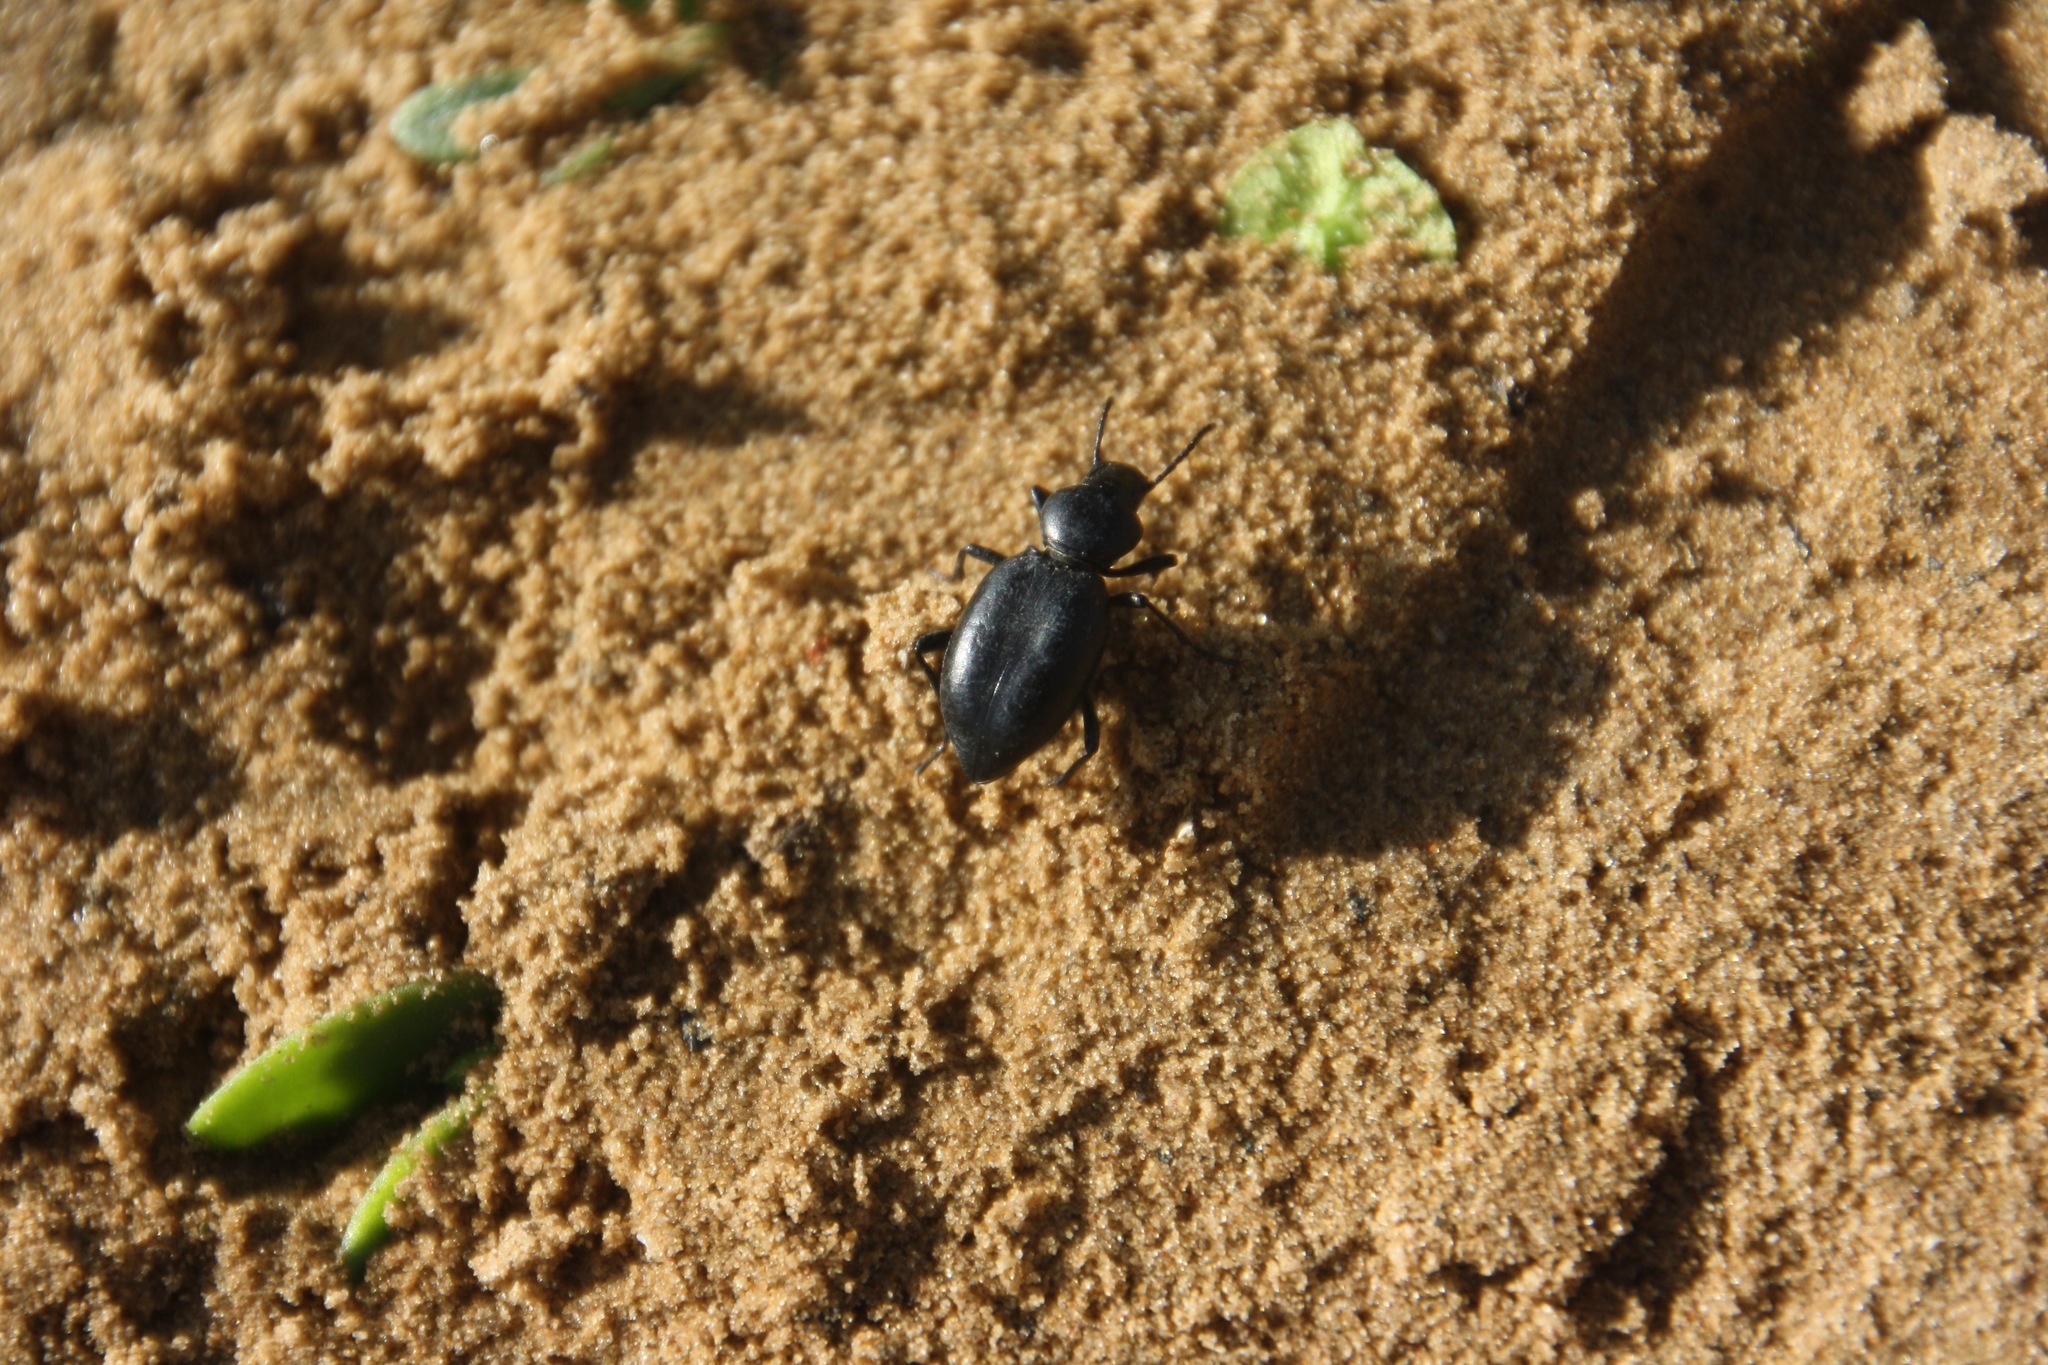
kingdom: Animalia
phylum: Arthropoda
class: Insecta
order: Coleoptera
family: Tenebrionidae
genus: Microdera
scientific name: Microdera deserta
